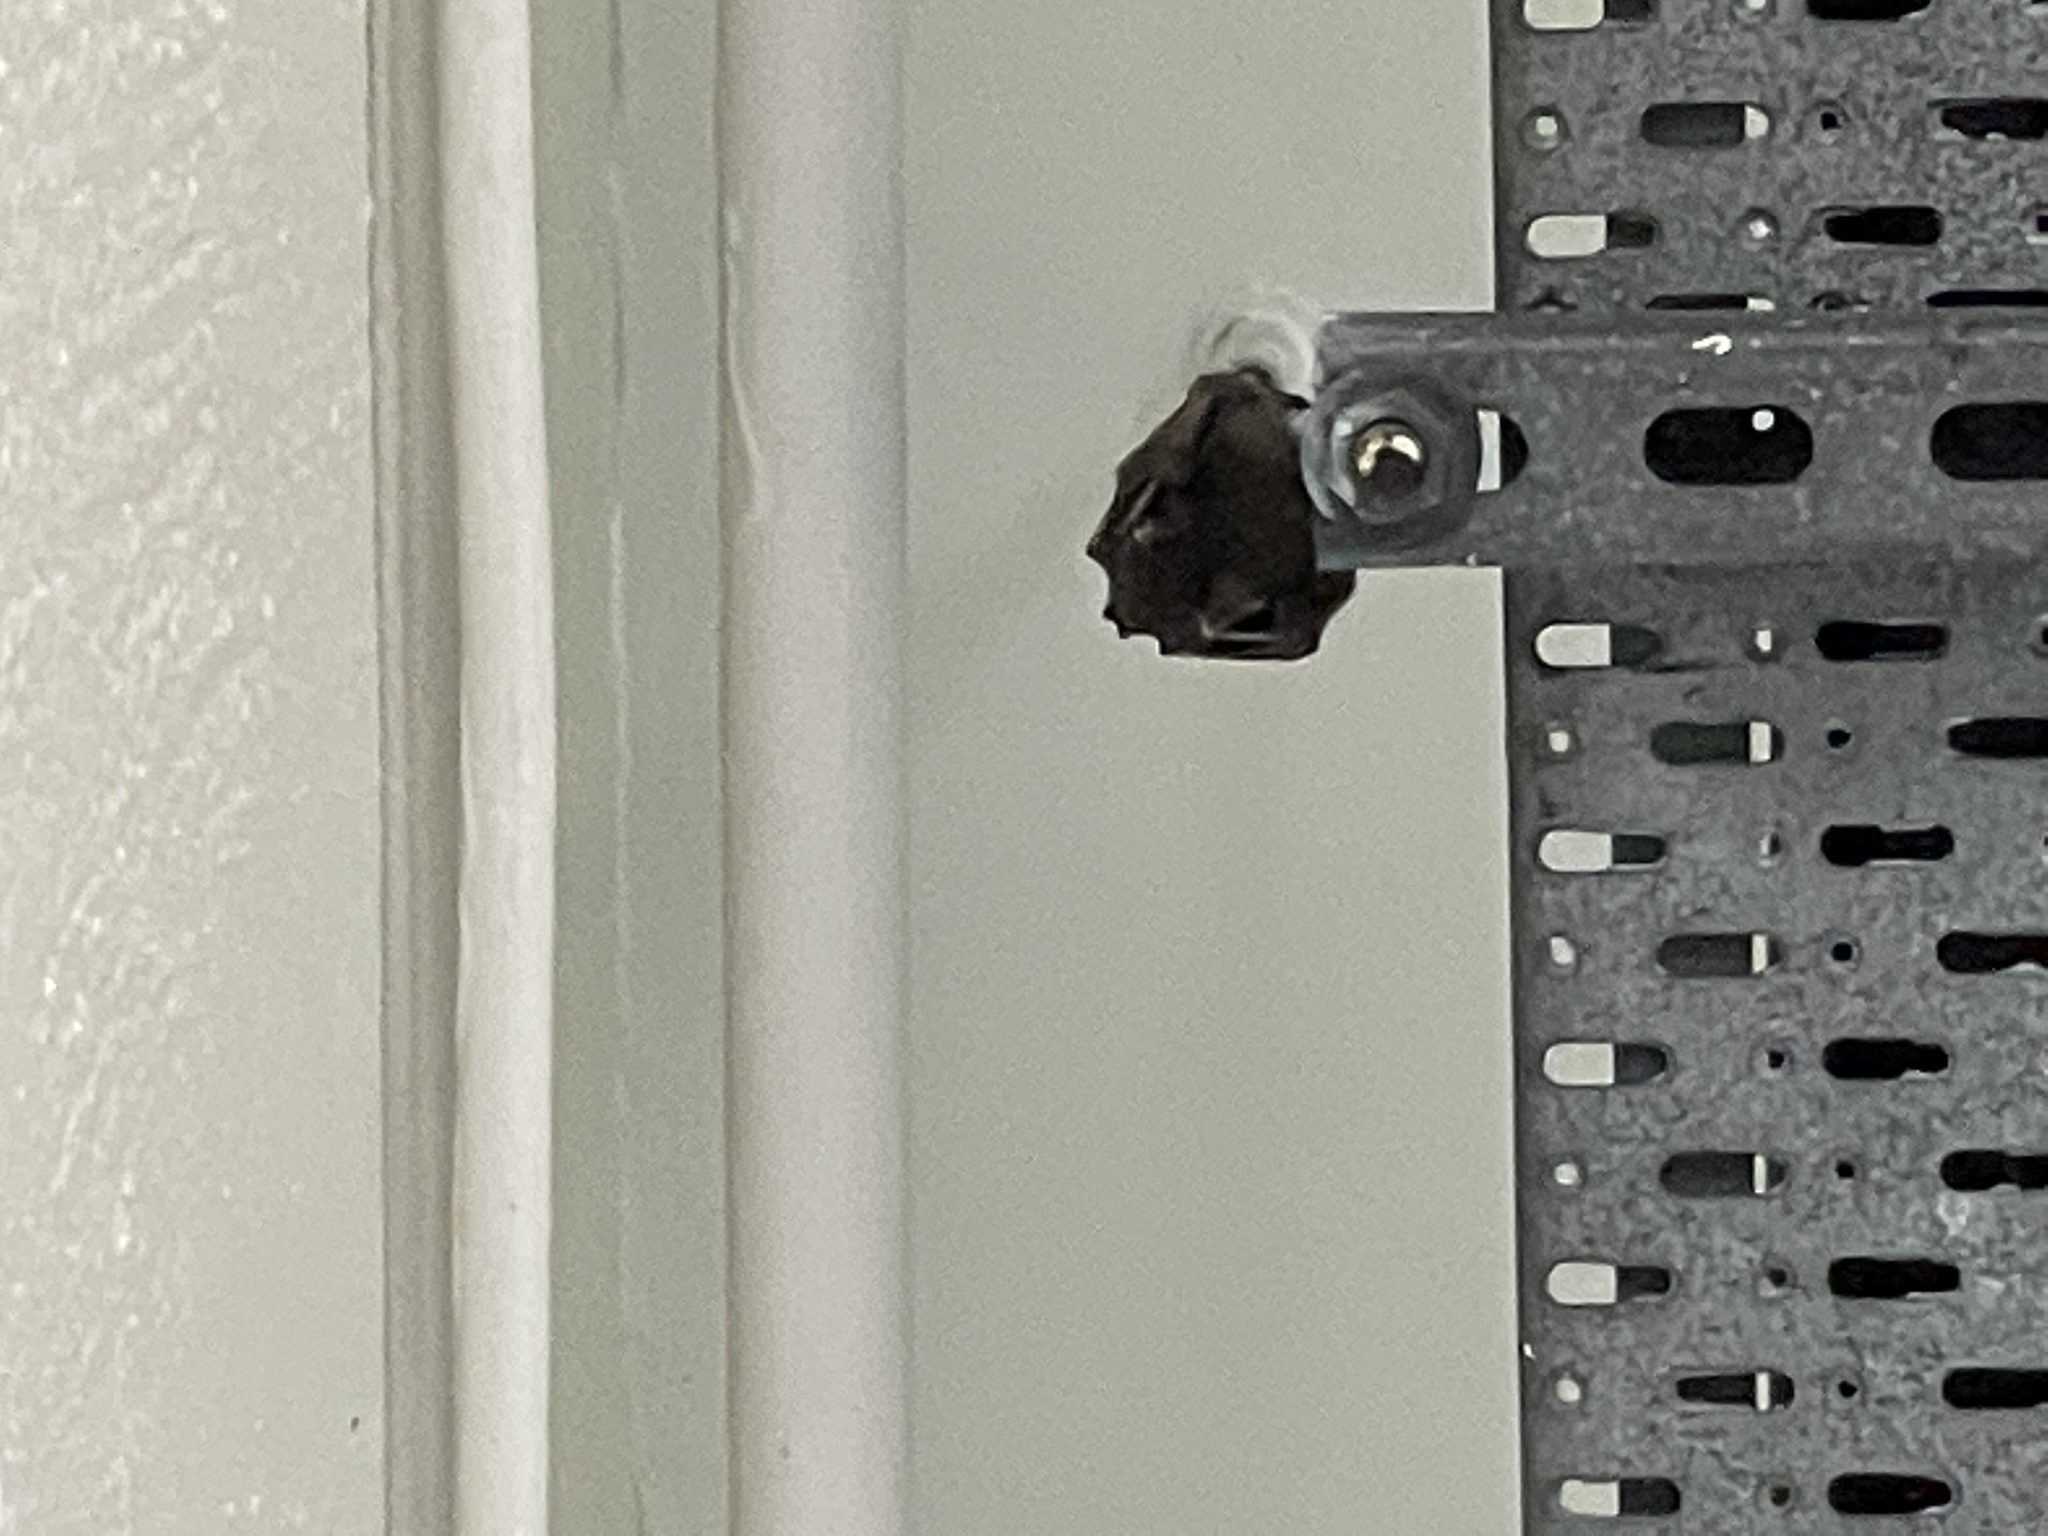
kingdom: Animalia
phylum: Chordata
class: Mammalia
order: Chiroptera
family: Pteropodidae
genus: Cynopterus
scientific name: Cynopterus sphinx
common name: Greater short-nosed fruit bat
